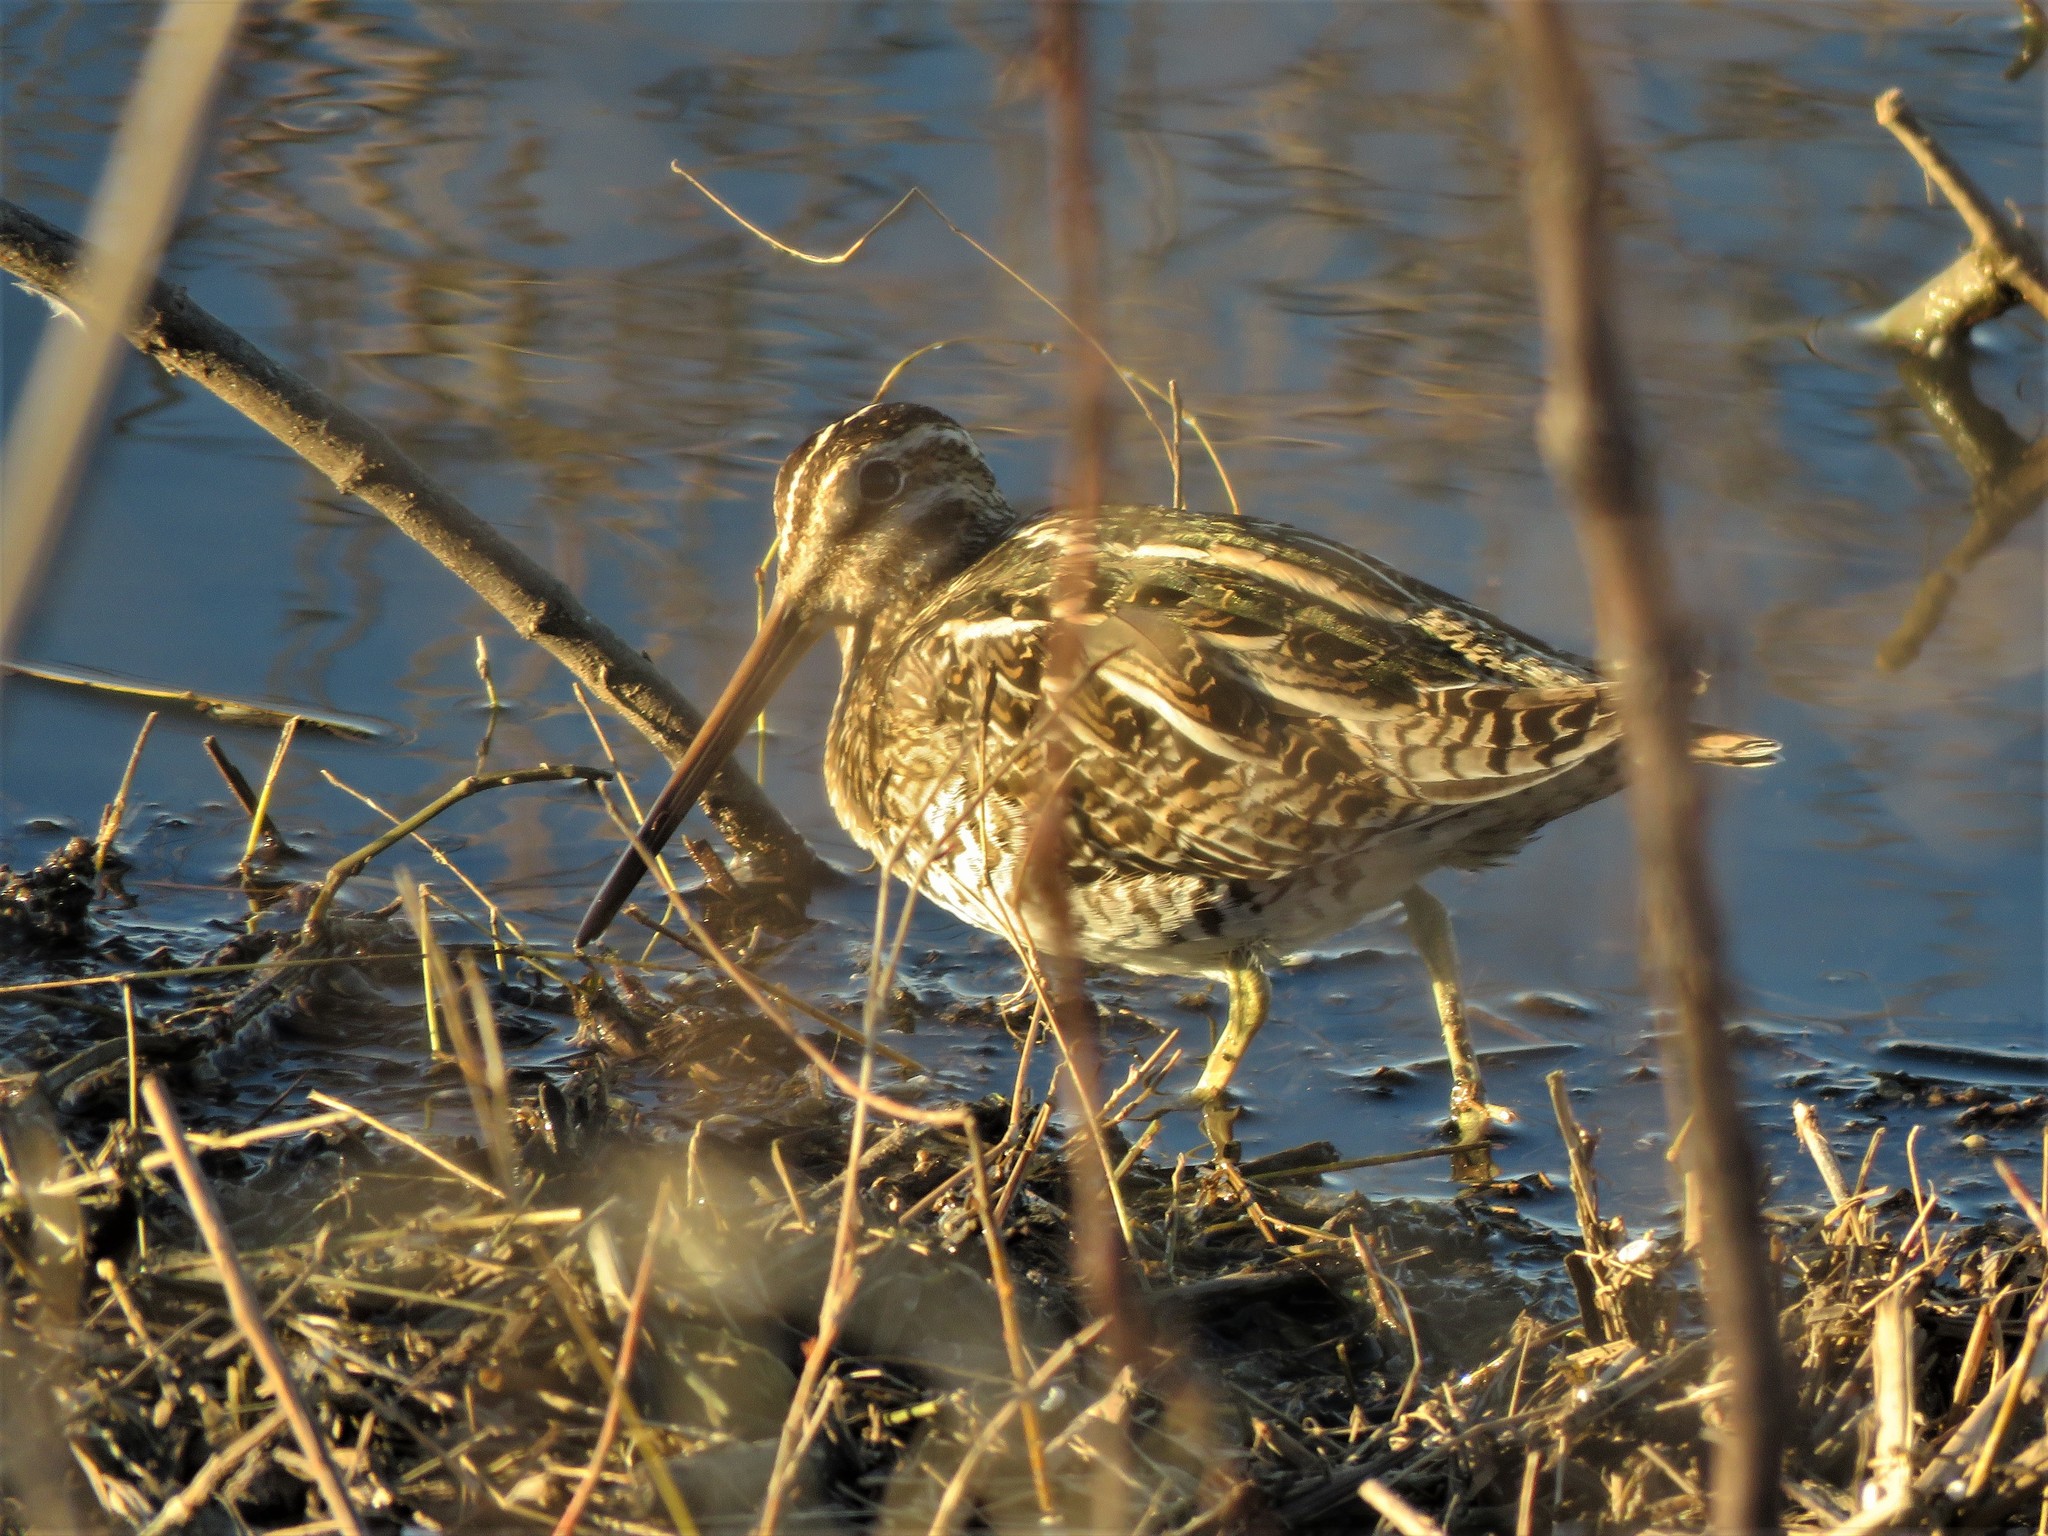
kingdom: Animalia
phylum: Chordata
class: Aves
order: Charadriiformes
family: Scolopacidae
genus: Gallinago
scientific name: Gallinago delicata
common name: Wilson's snipe
